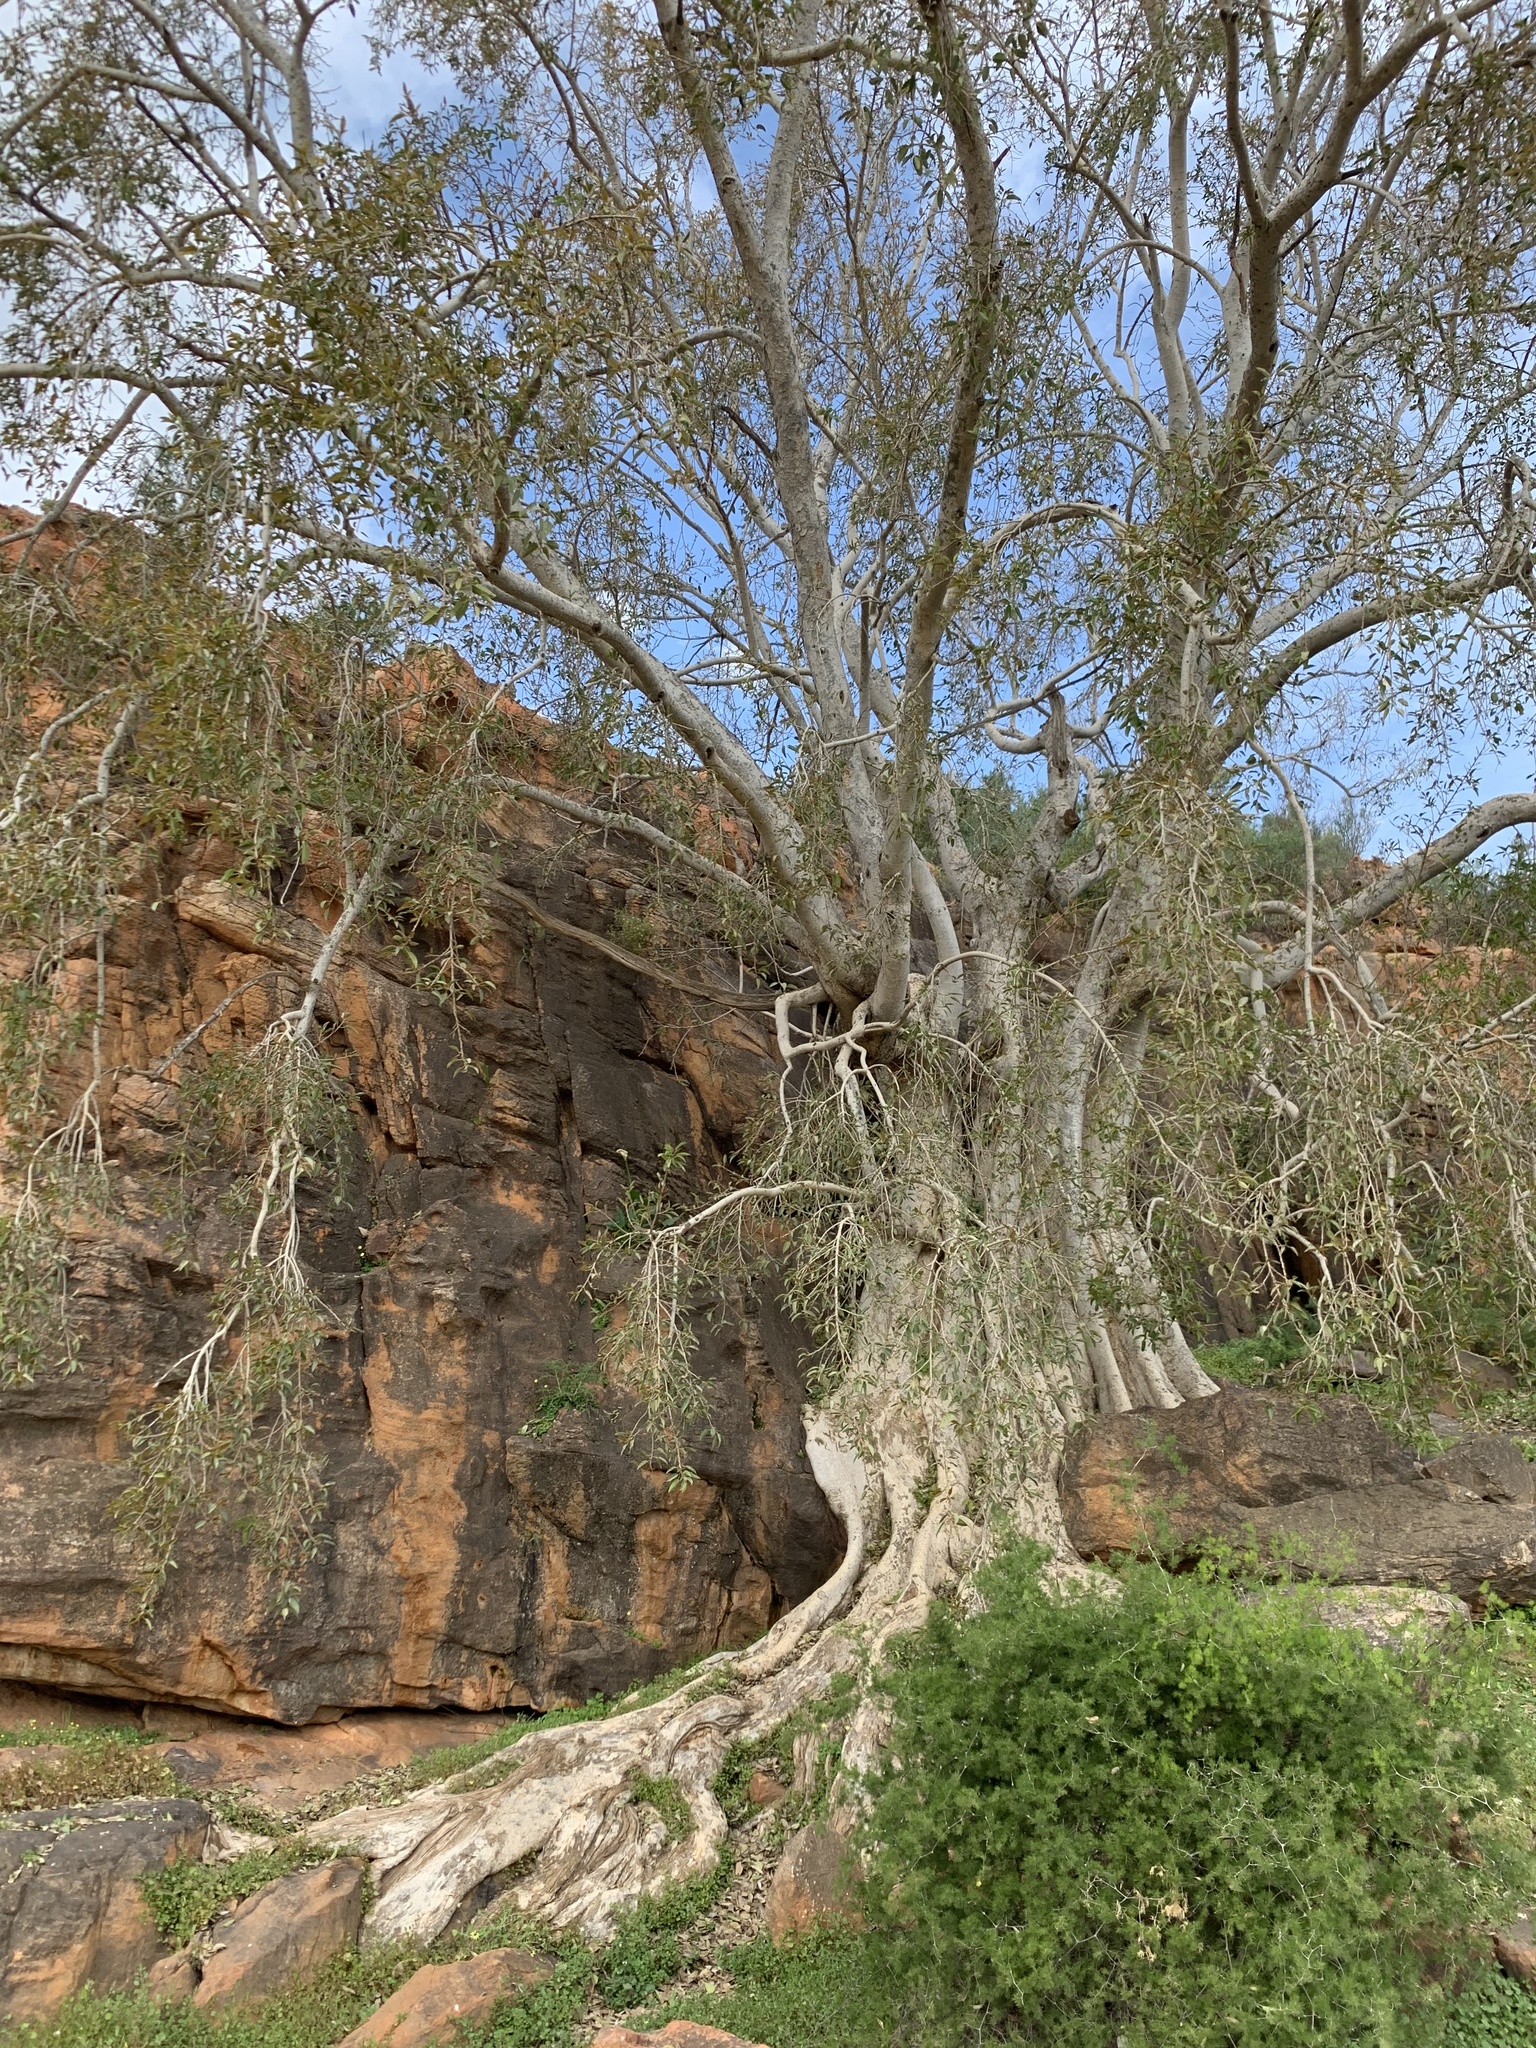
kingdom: Plantae
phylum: Tracheophyta
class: Magnoliopsida
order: Rosales
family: Moraceae
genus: Ficus
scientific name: Ficus cordata
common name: Namaqua rock fig
